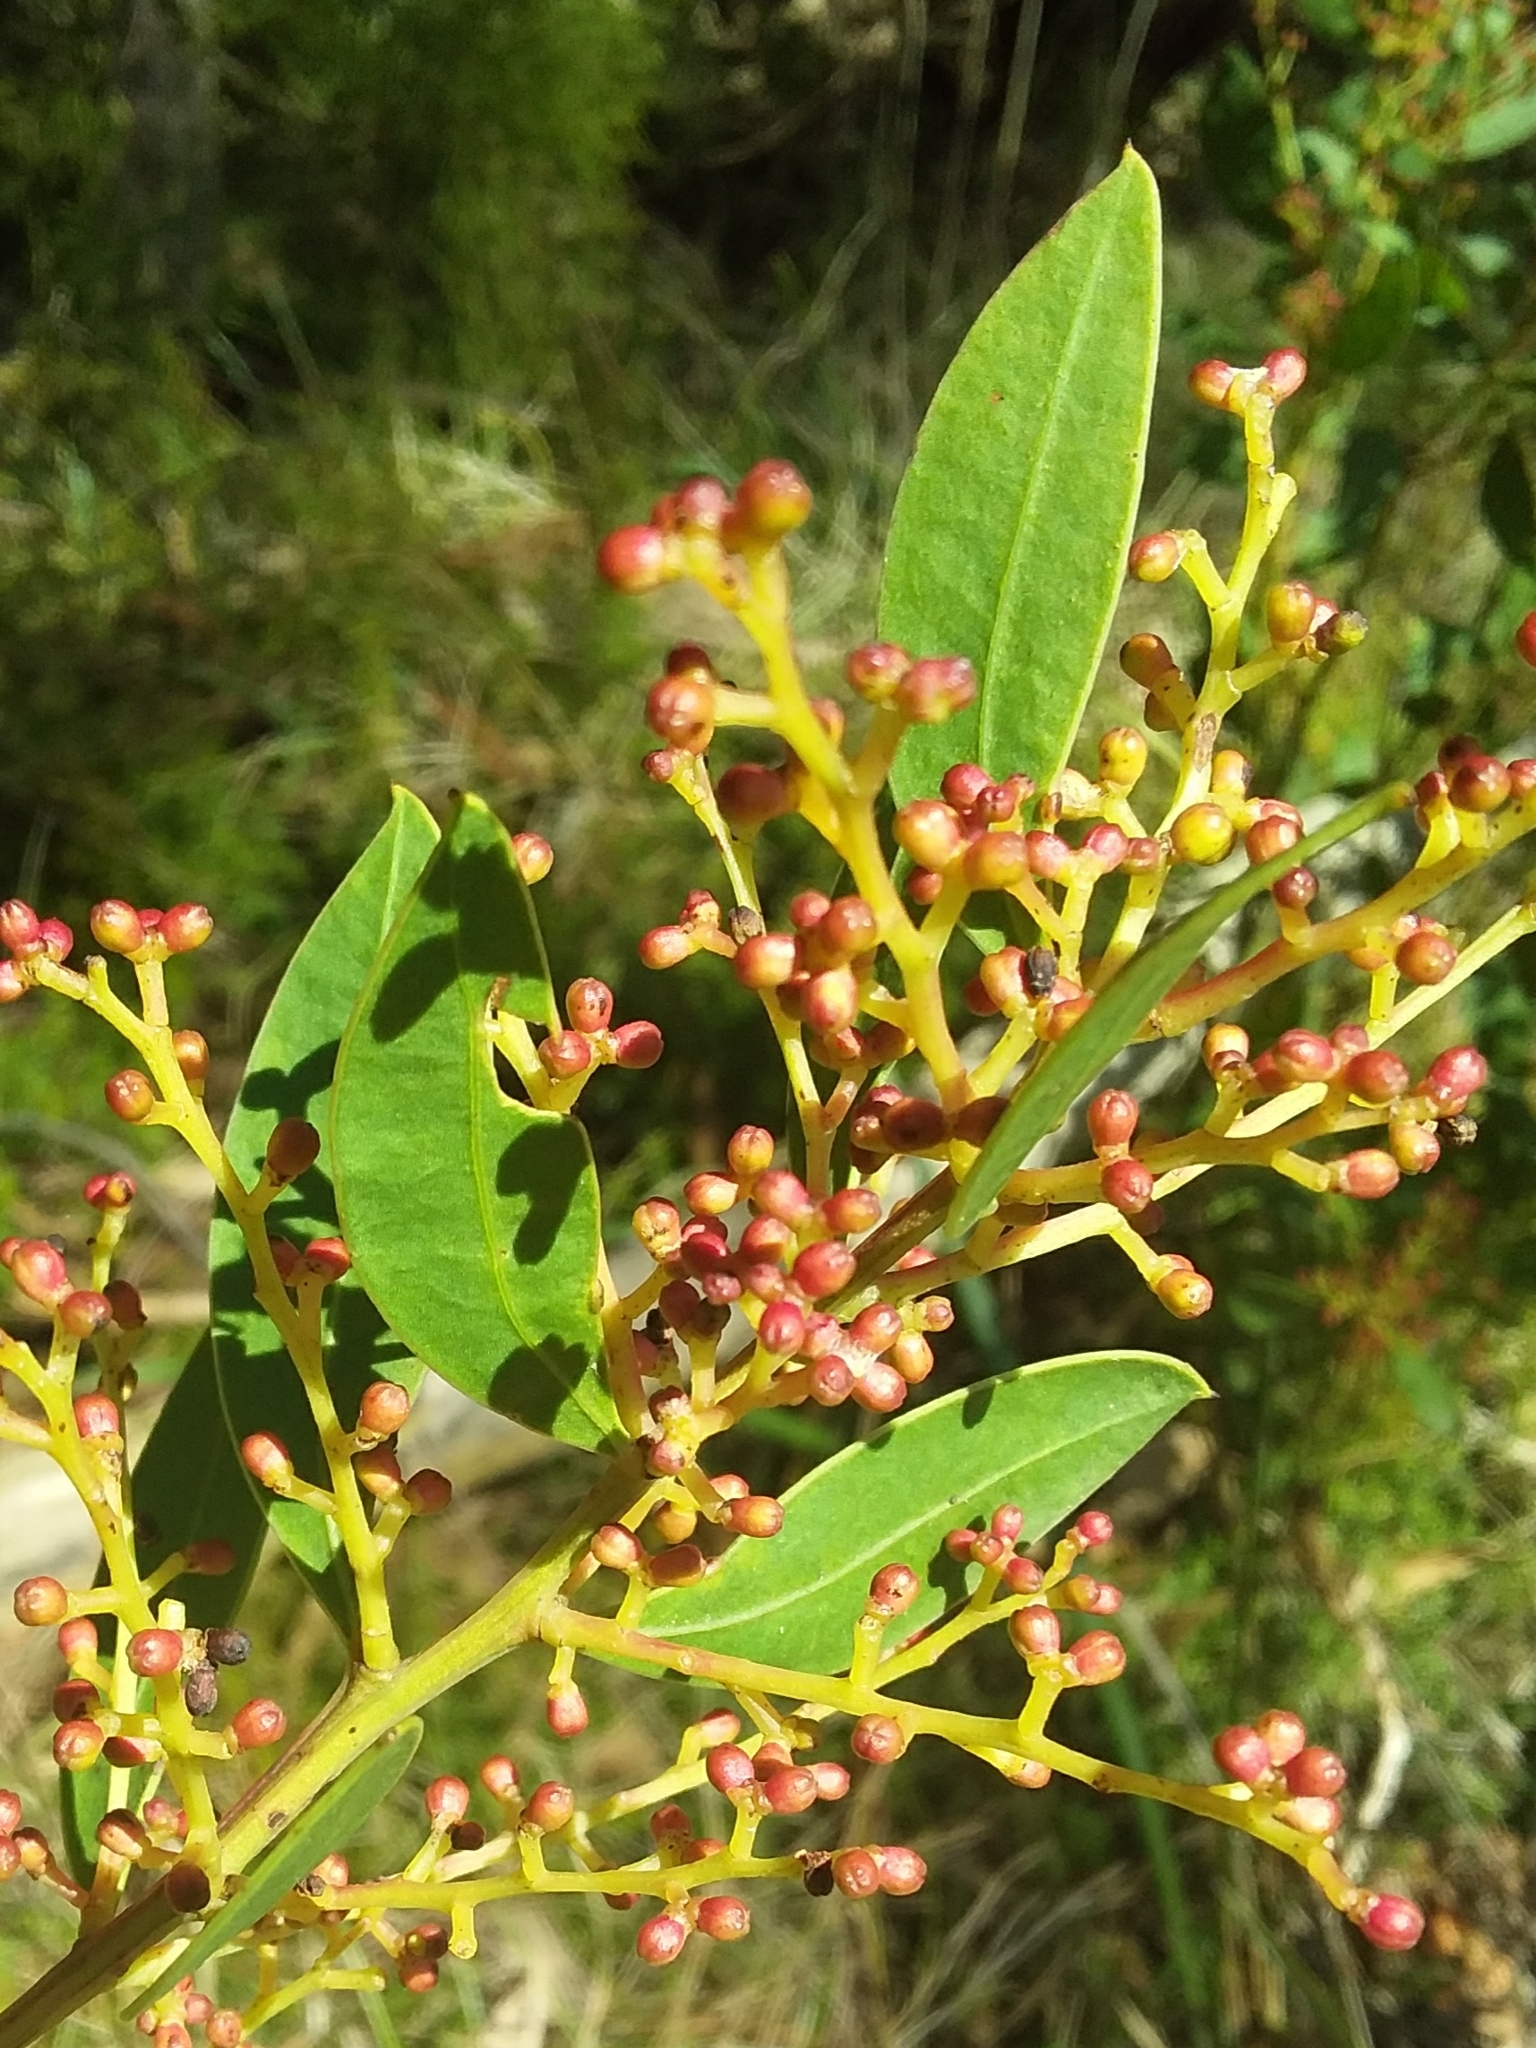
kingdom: Plantae
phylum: Tracheophyta
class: Magnoliopsida
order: Fabales
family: Fabaceae
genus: Acacia
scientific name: Acacia myrtifolia
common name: Myrtle wattle
